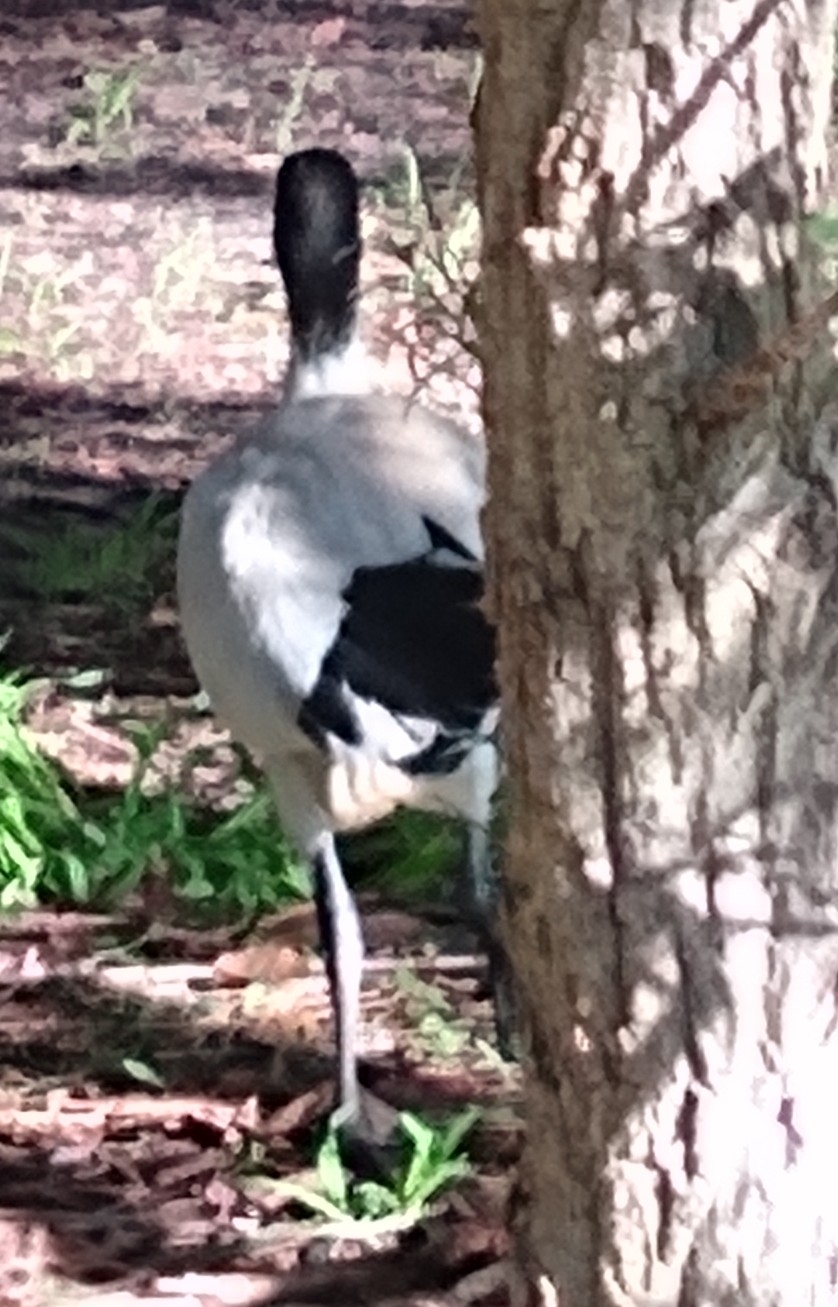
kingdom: Animalia
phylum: Chordata
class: Aves
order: Pelecaniformes
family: Threskiornithidae
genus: Threskiornis
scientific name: Threskiornis molucca
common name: Australian white ibis
